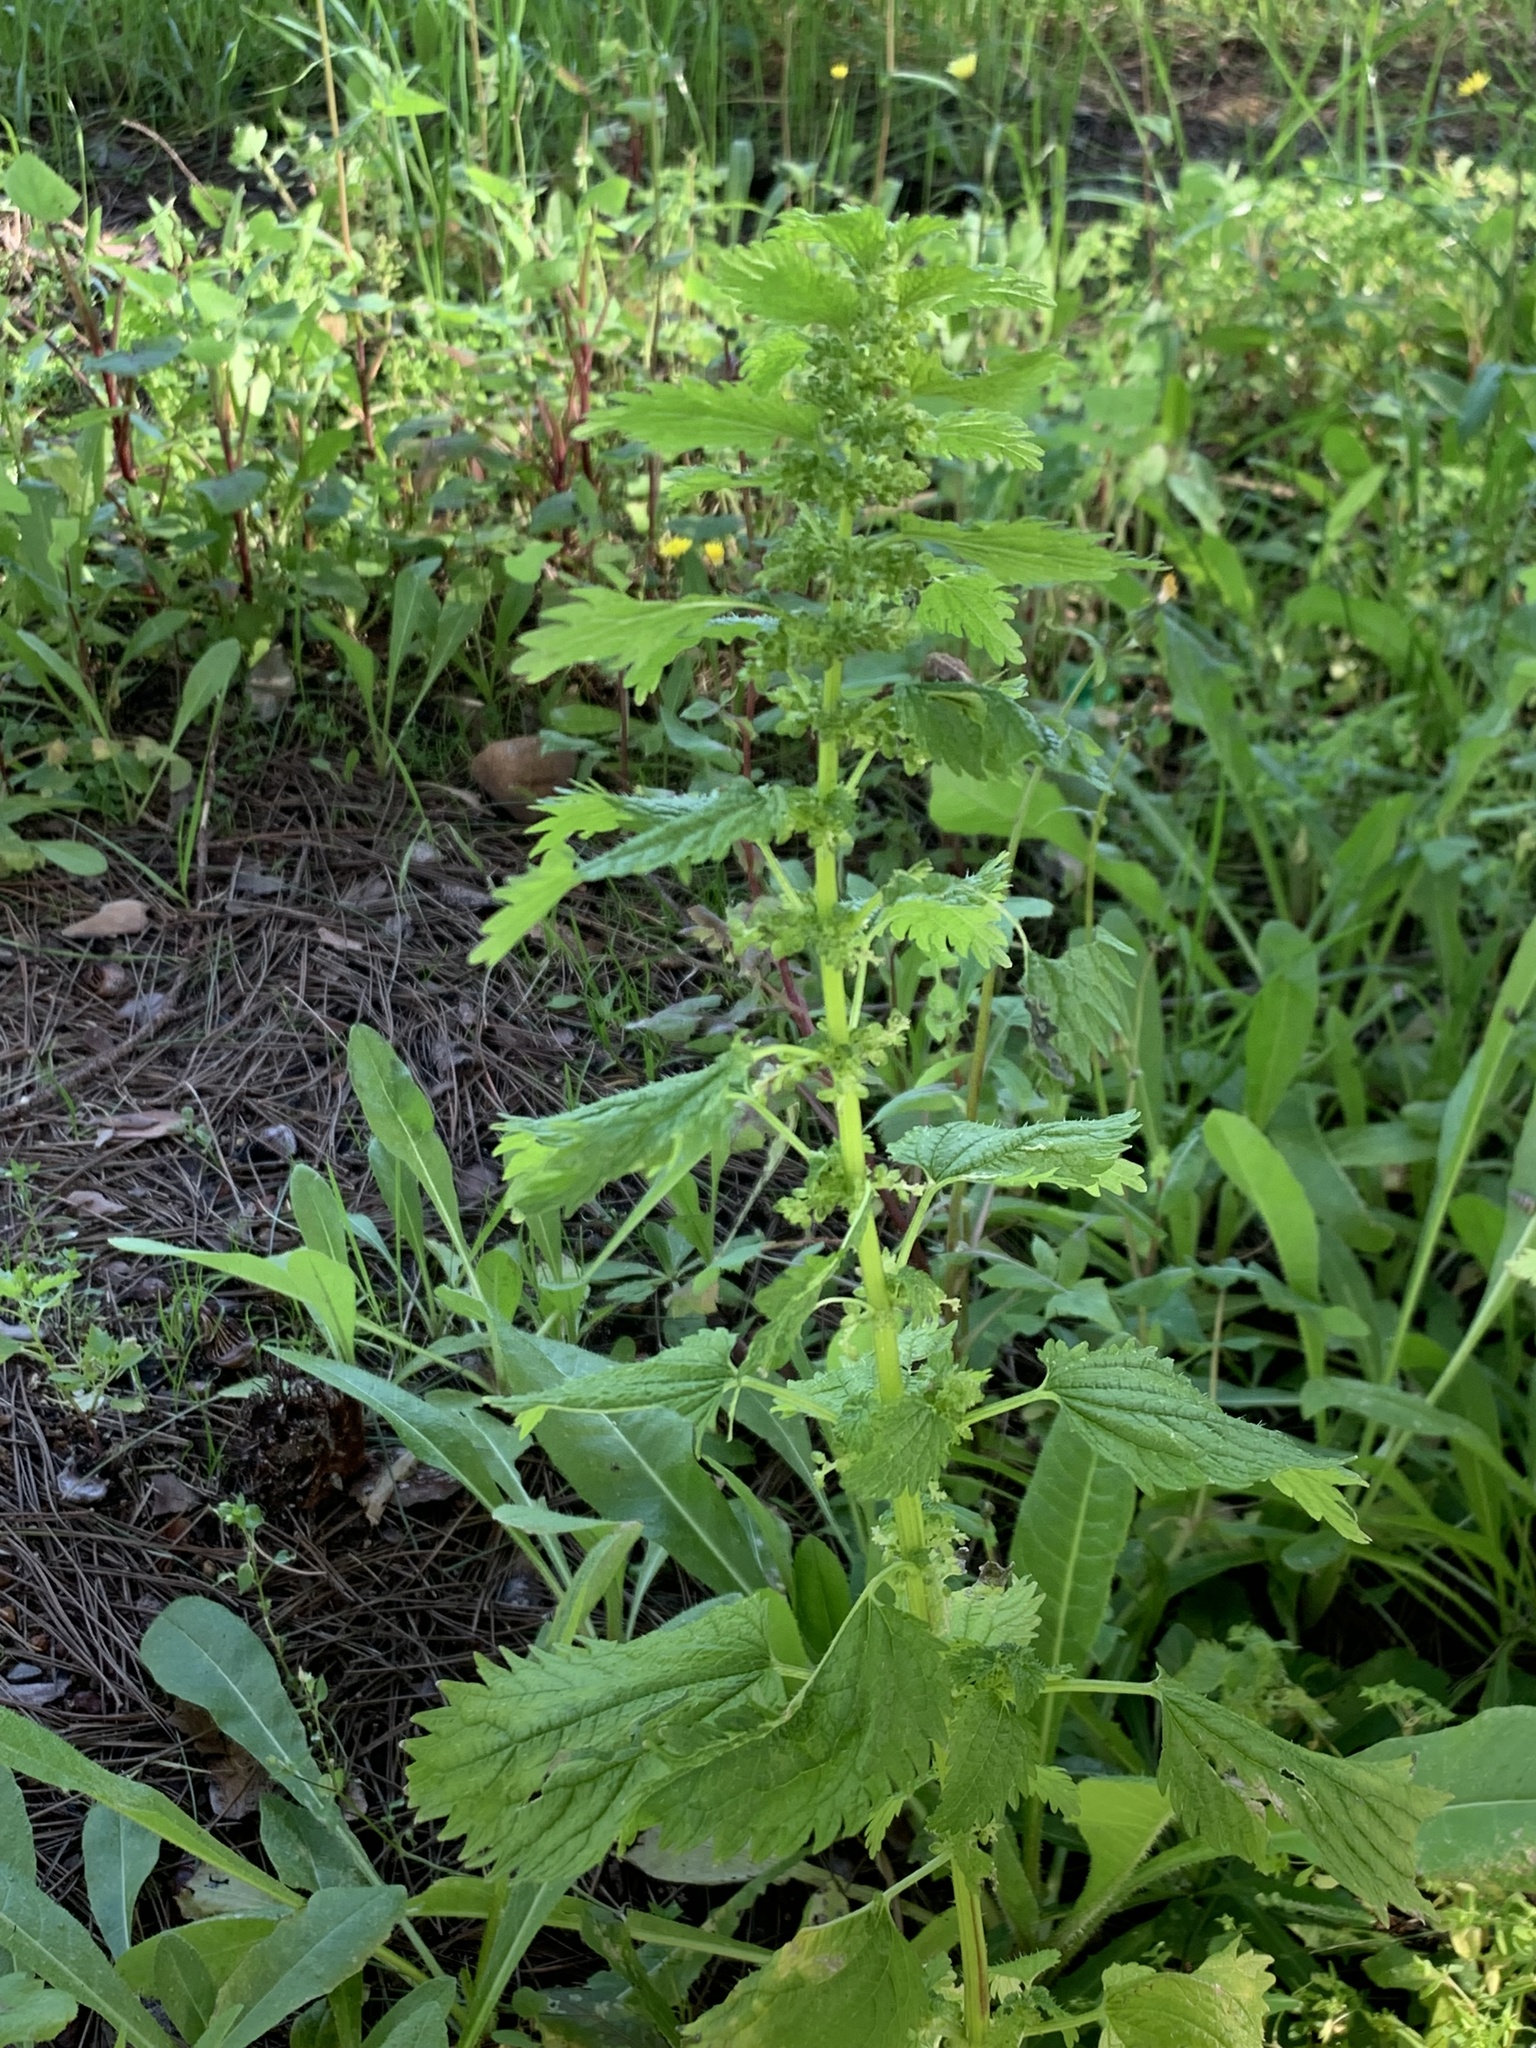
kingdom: Plantae
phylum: Tracheophyta
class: Magnoliopsida
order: Rosales
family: Urticaceae
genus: Urtica
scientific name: Urtica urens
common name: Dwarf nettle
